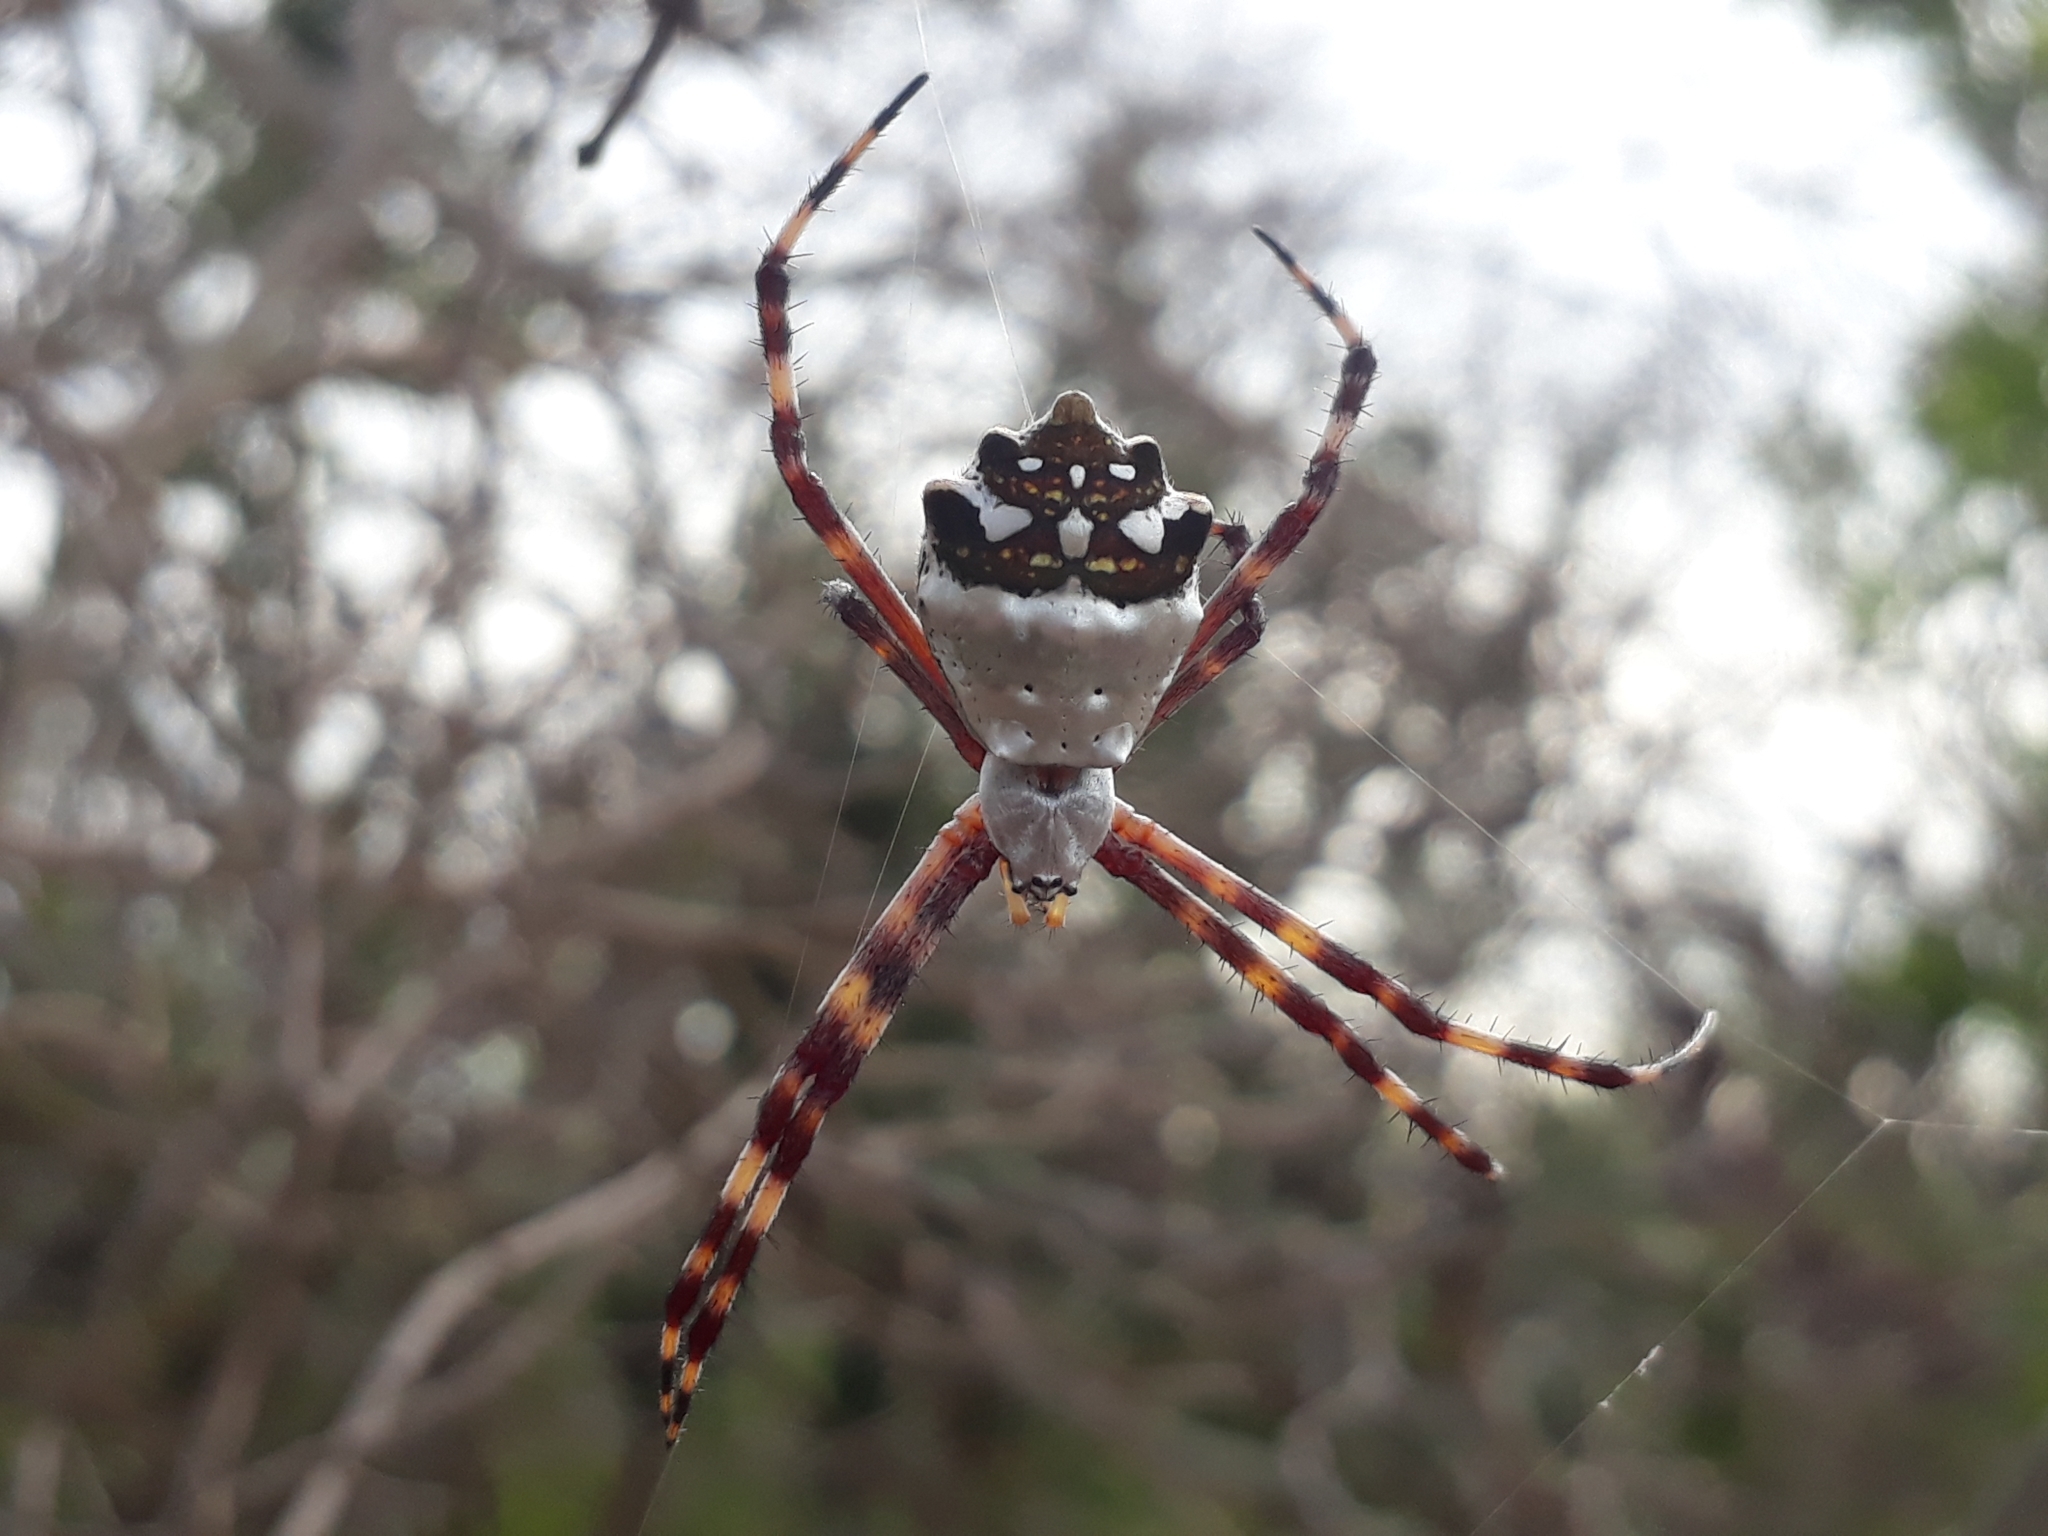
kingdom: Animalia
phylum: Arthropoda
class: Arachnida
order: Araneae
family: Araneidae
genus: Argiope
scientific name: Argiope argentata
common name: Orb weavers
